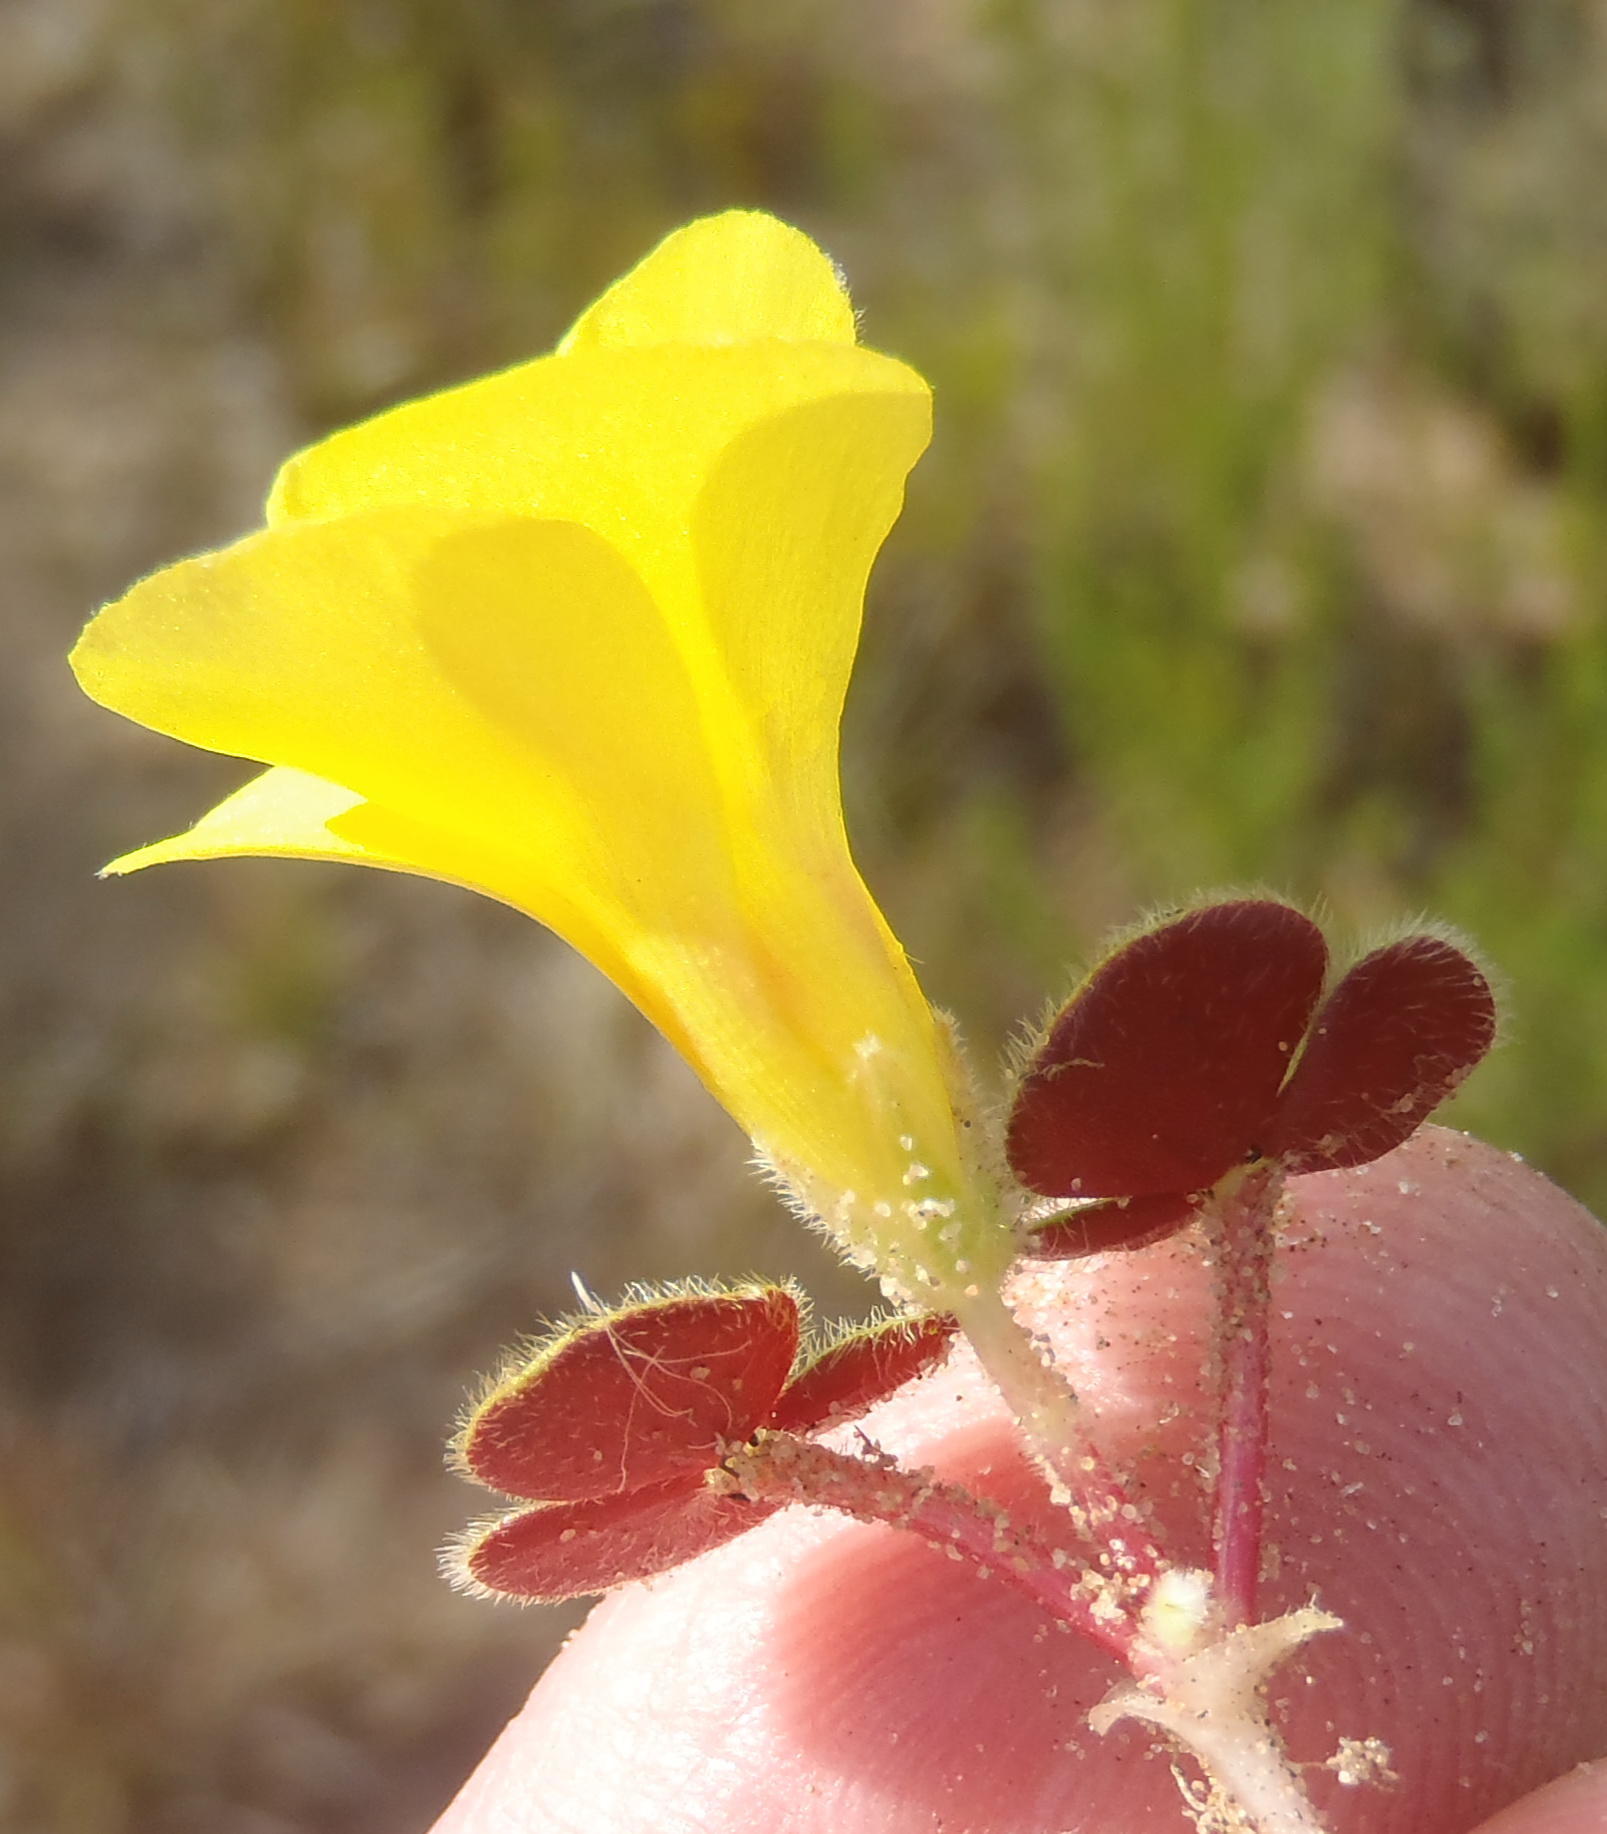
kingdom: Plantae
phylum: Tracheophyta
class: Magnoliopsida
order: Oxalidales
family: Oxalidaceae
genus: Oxalis
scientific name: Oxalis luteola
